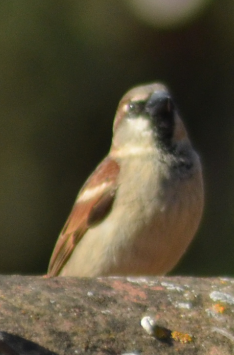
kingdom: Animalia
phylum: Chordata
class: Aves
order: Passeriformes
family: Passeridae
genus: Passer
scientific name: Passer domesticus
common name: House sparrow
